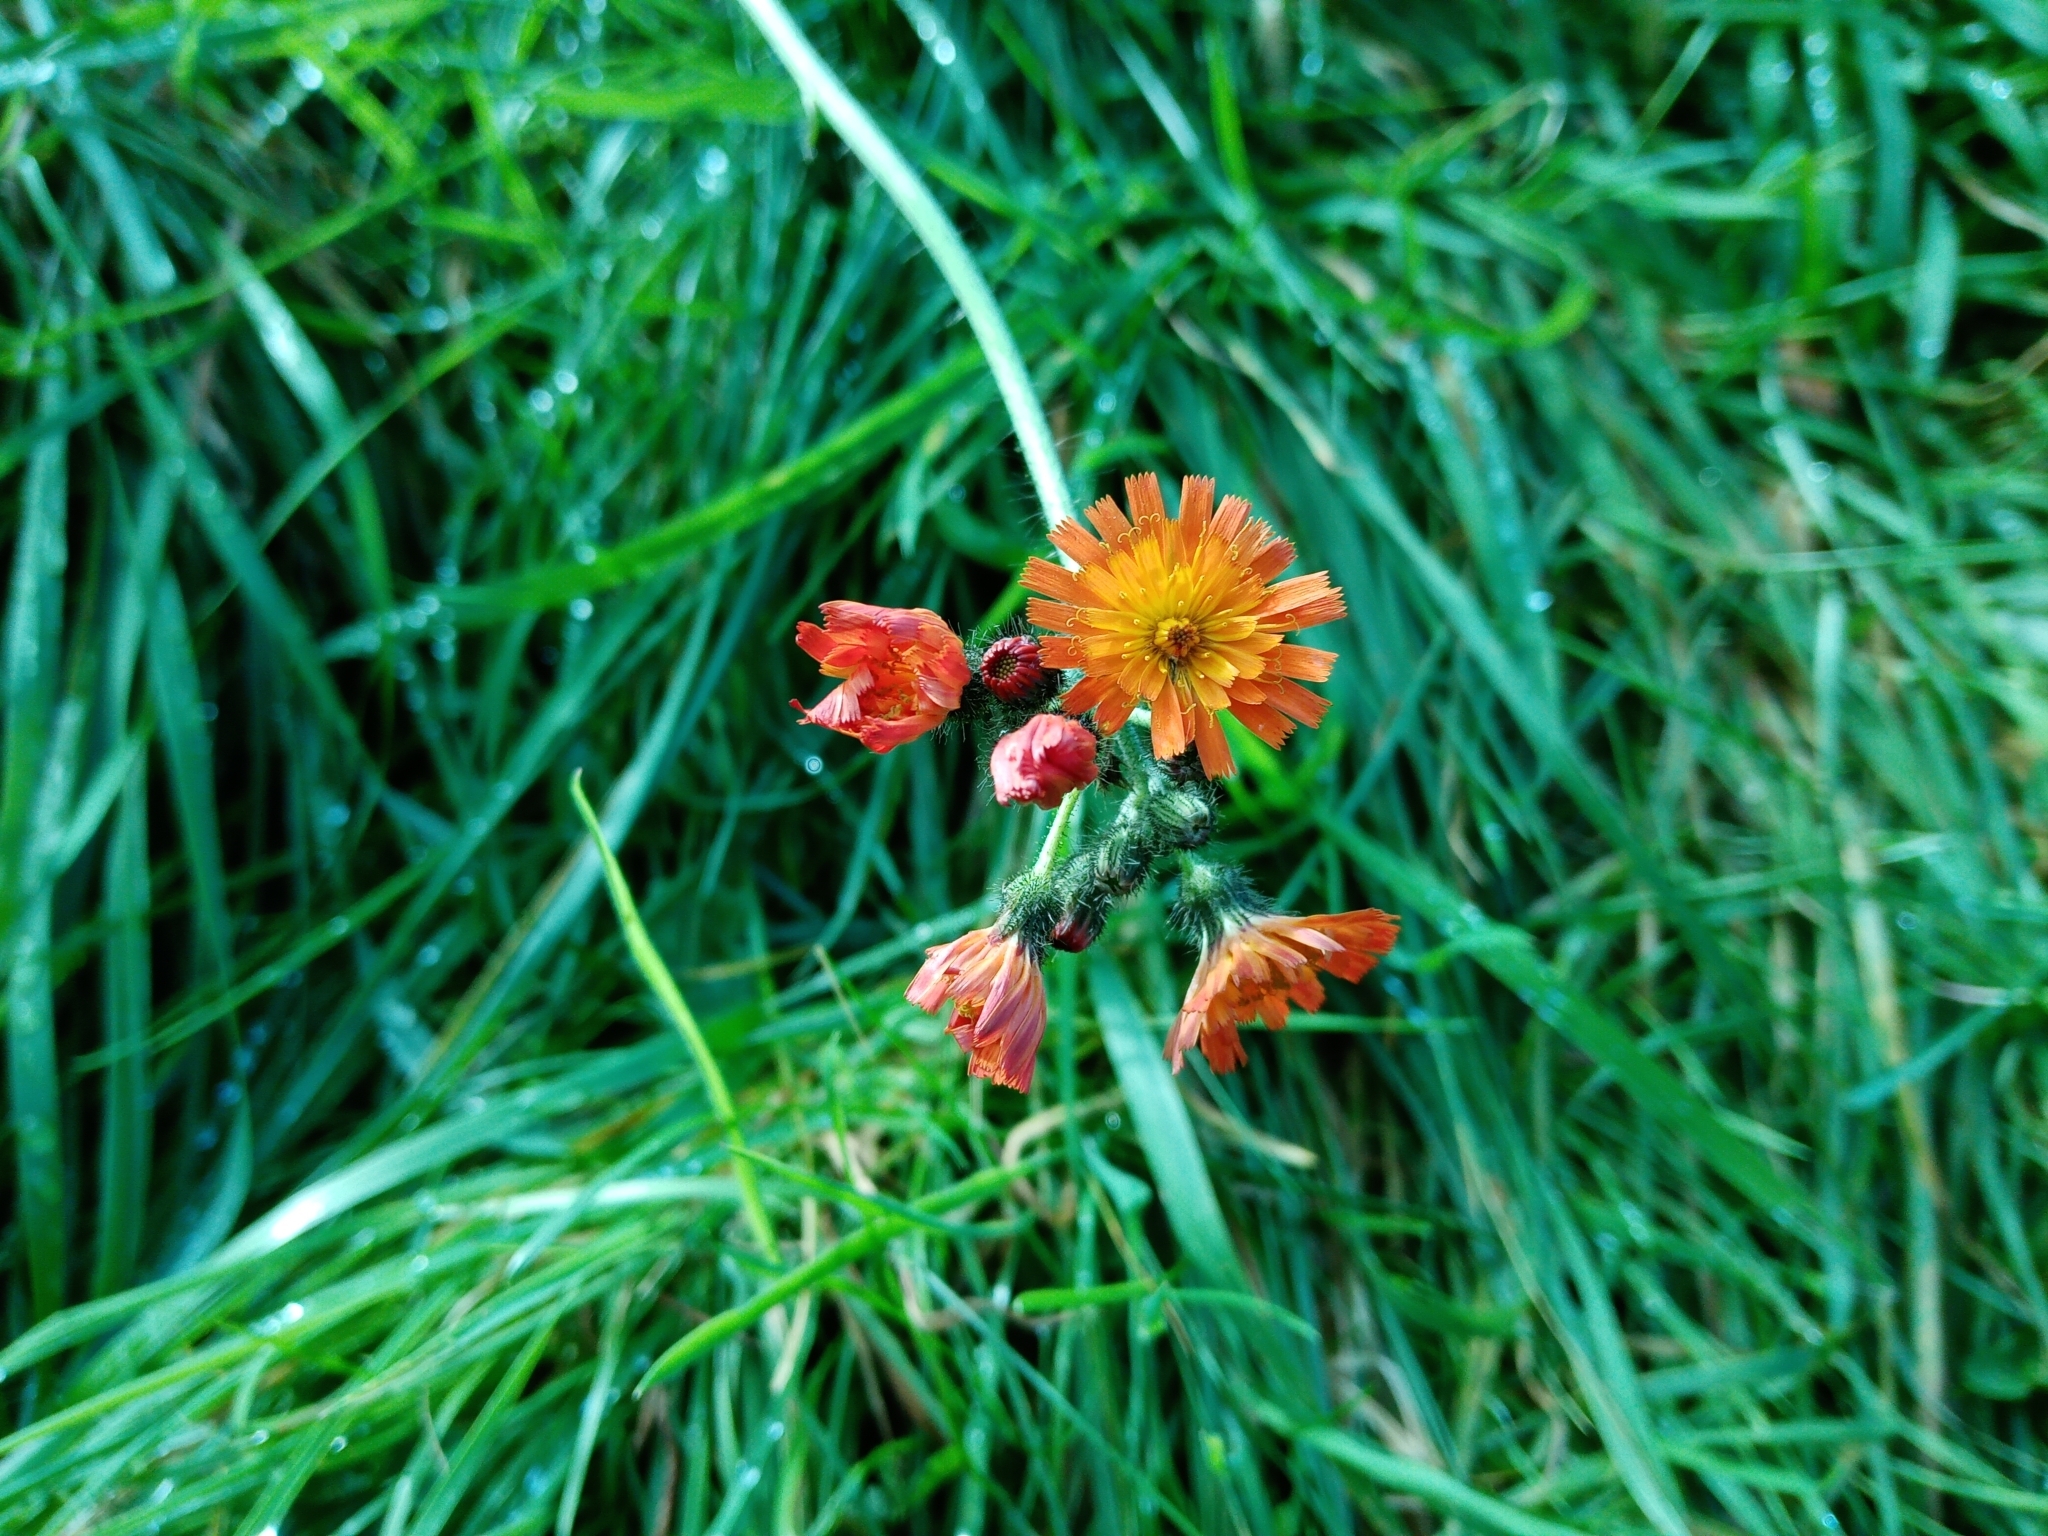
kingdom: Plantae
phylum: Tracheophyta
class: Magnoliopsida
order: Asterales
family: Asteraceae
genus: Pilosella
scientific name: Pilosella aurantiaca
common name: Fox-and-cubs
